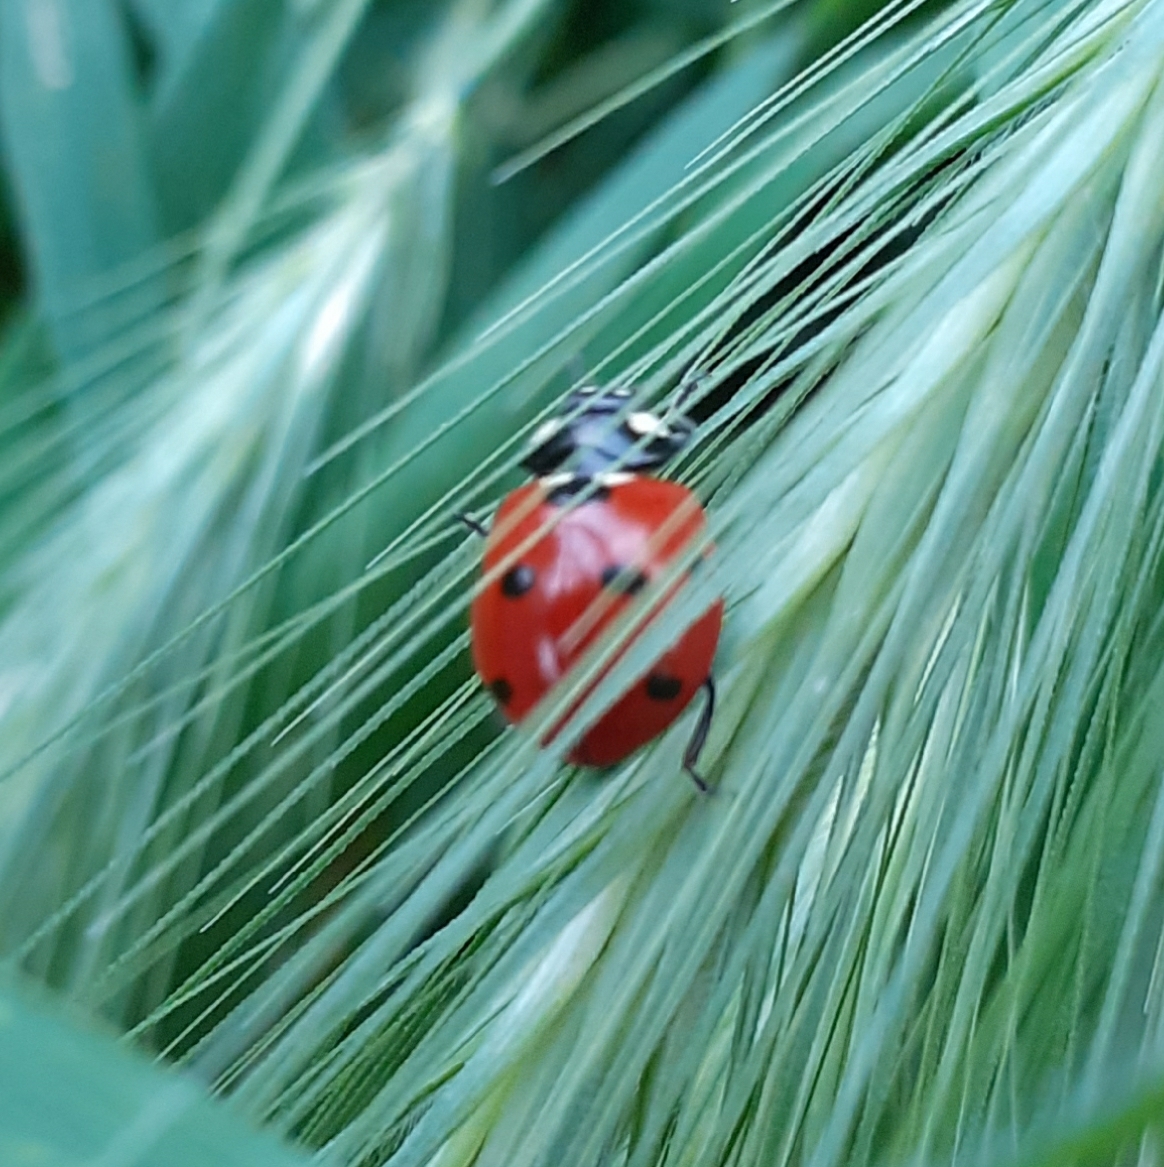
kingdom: Animalia
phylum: Arthropoda
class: Insecta
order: Coleoptera
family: Coccinellidae
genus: Coccinella
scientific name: Coccinella septempunctata
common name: Sevenspotted lady beetle
